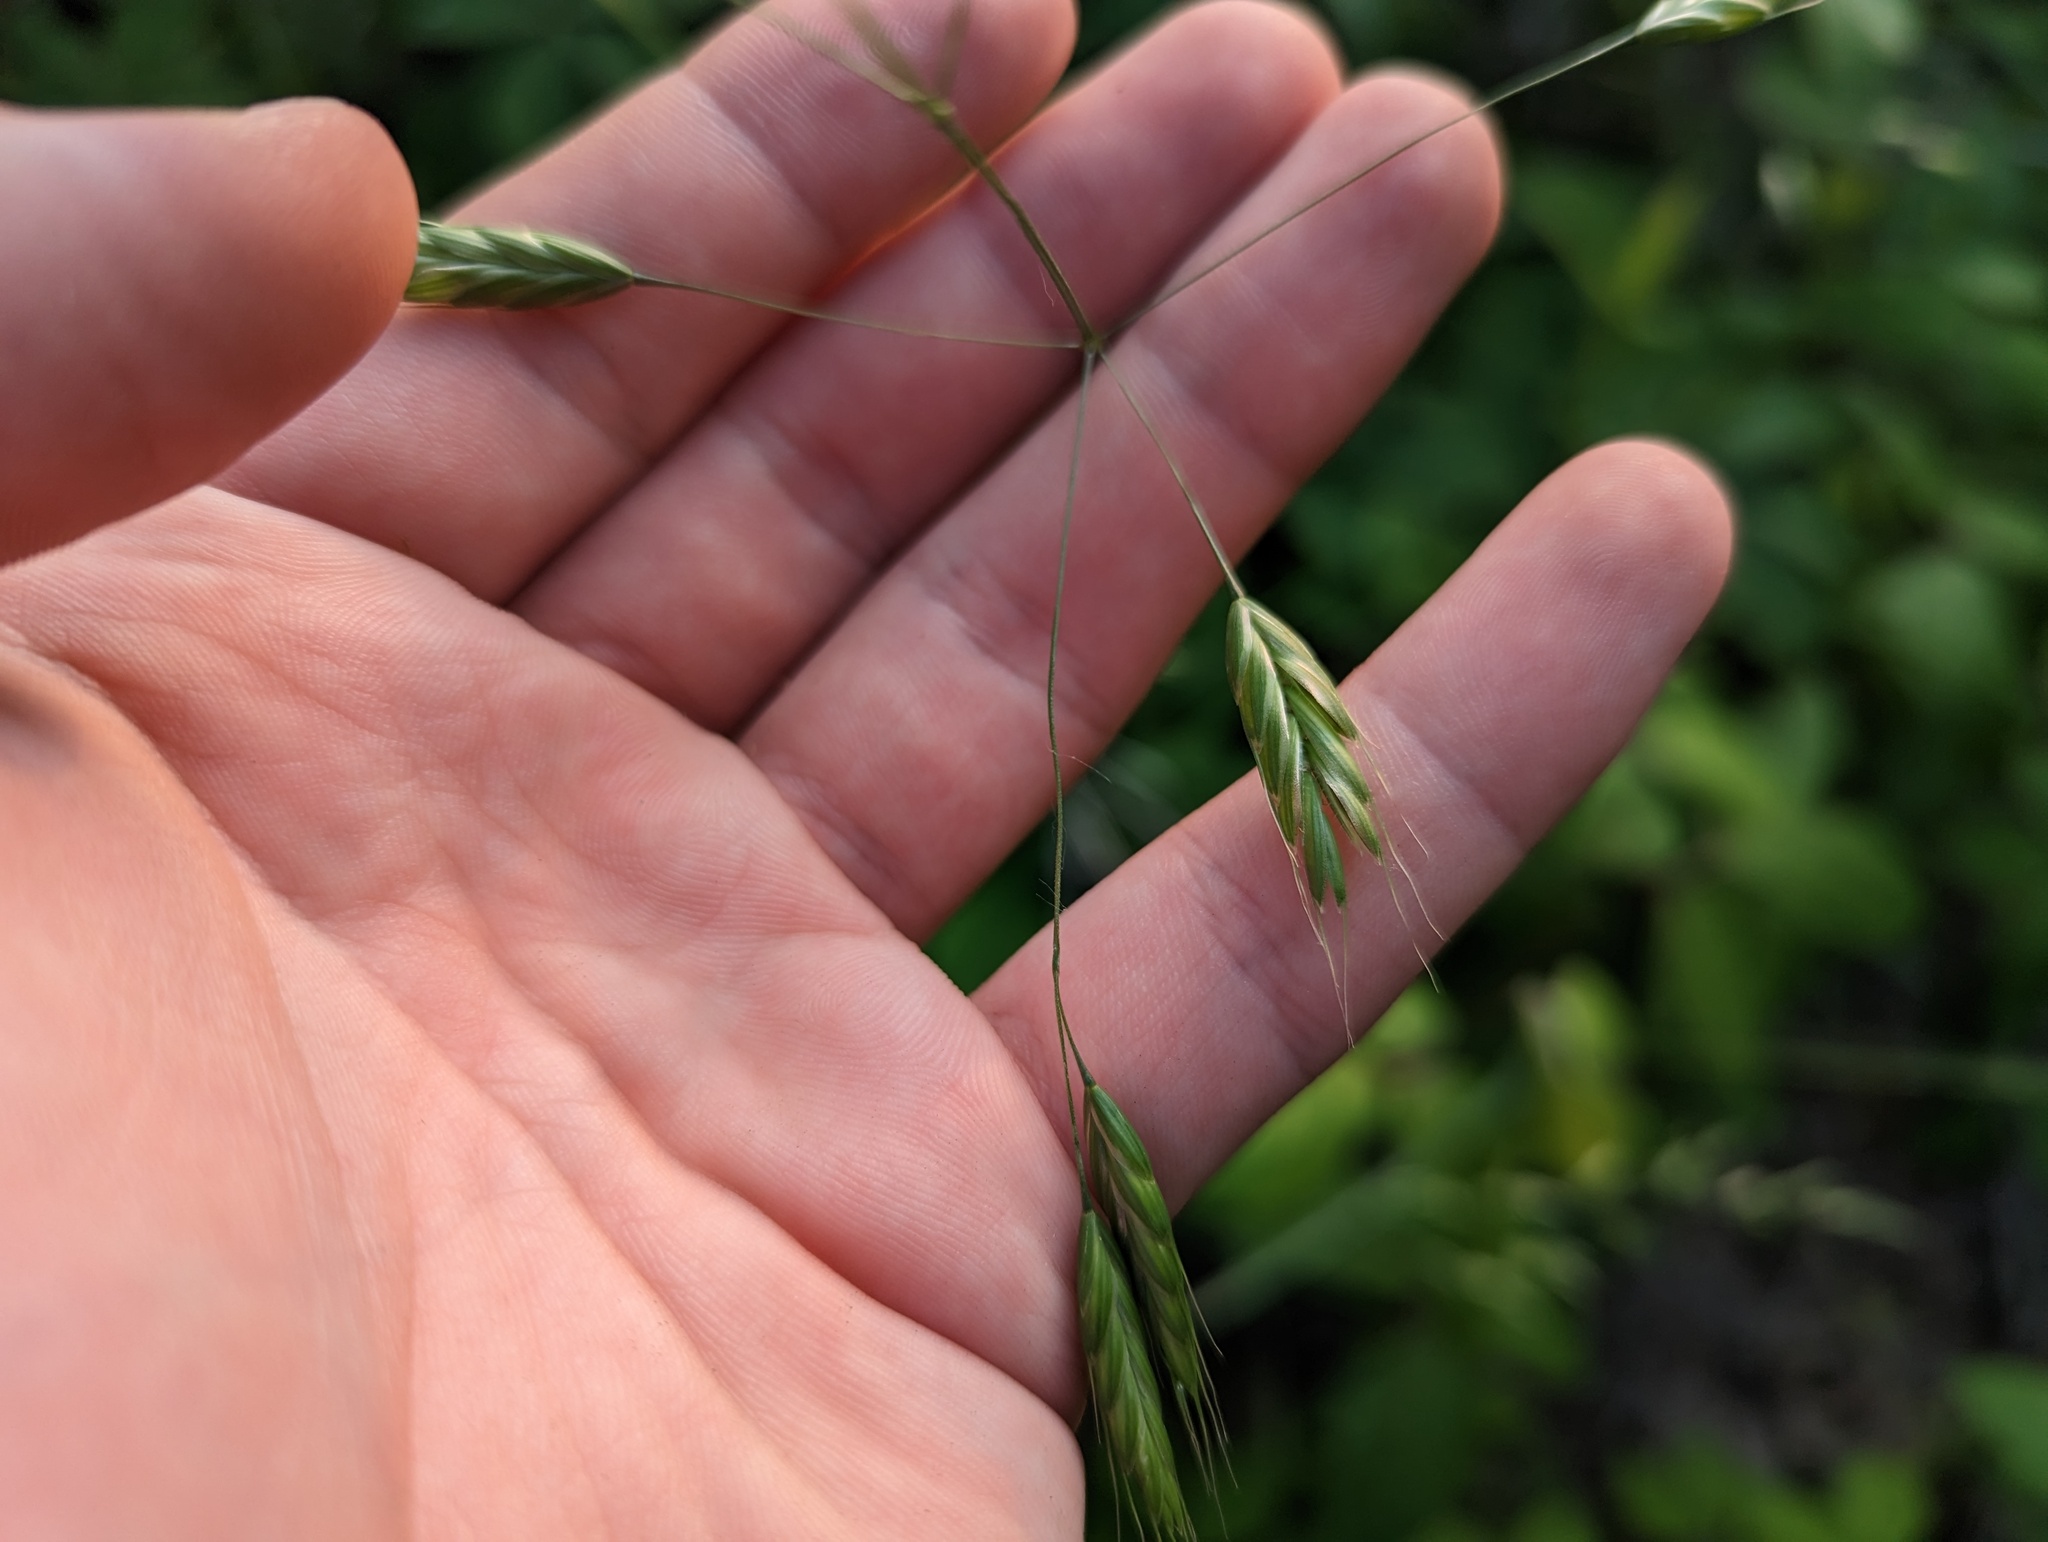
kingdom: Plantae
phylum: Tracheophyta
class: Liliopsida
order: Poales
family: Poaceae
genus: Bromus
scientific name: Bromus japonicus
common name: Japanese brome
